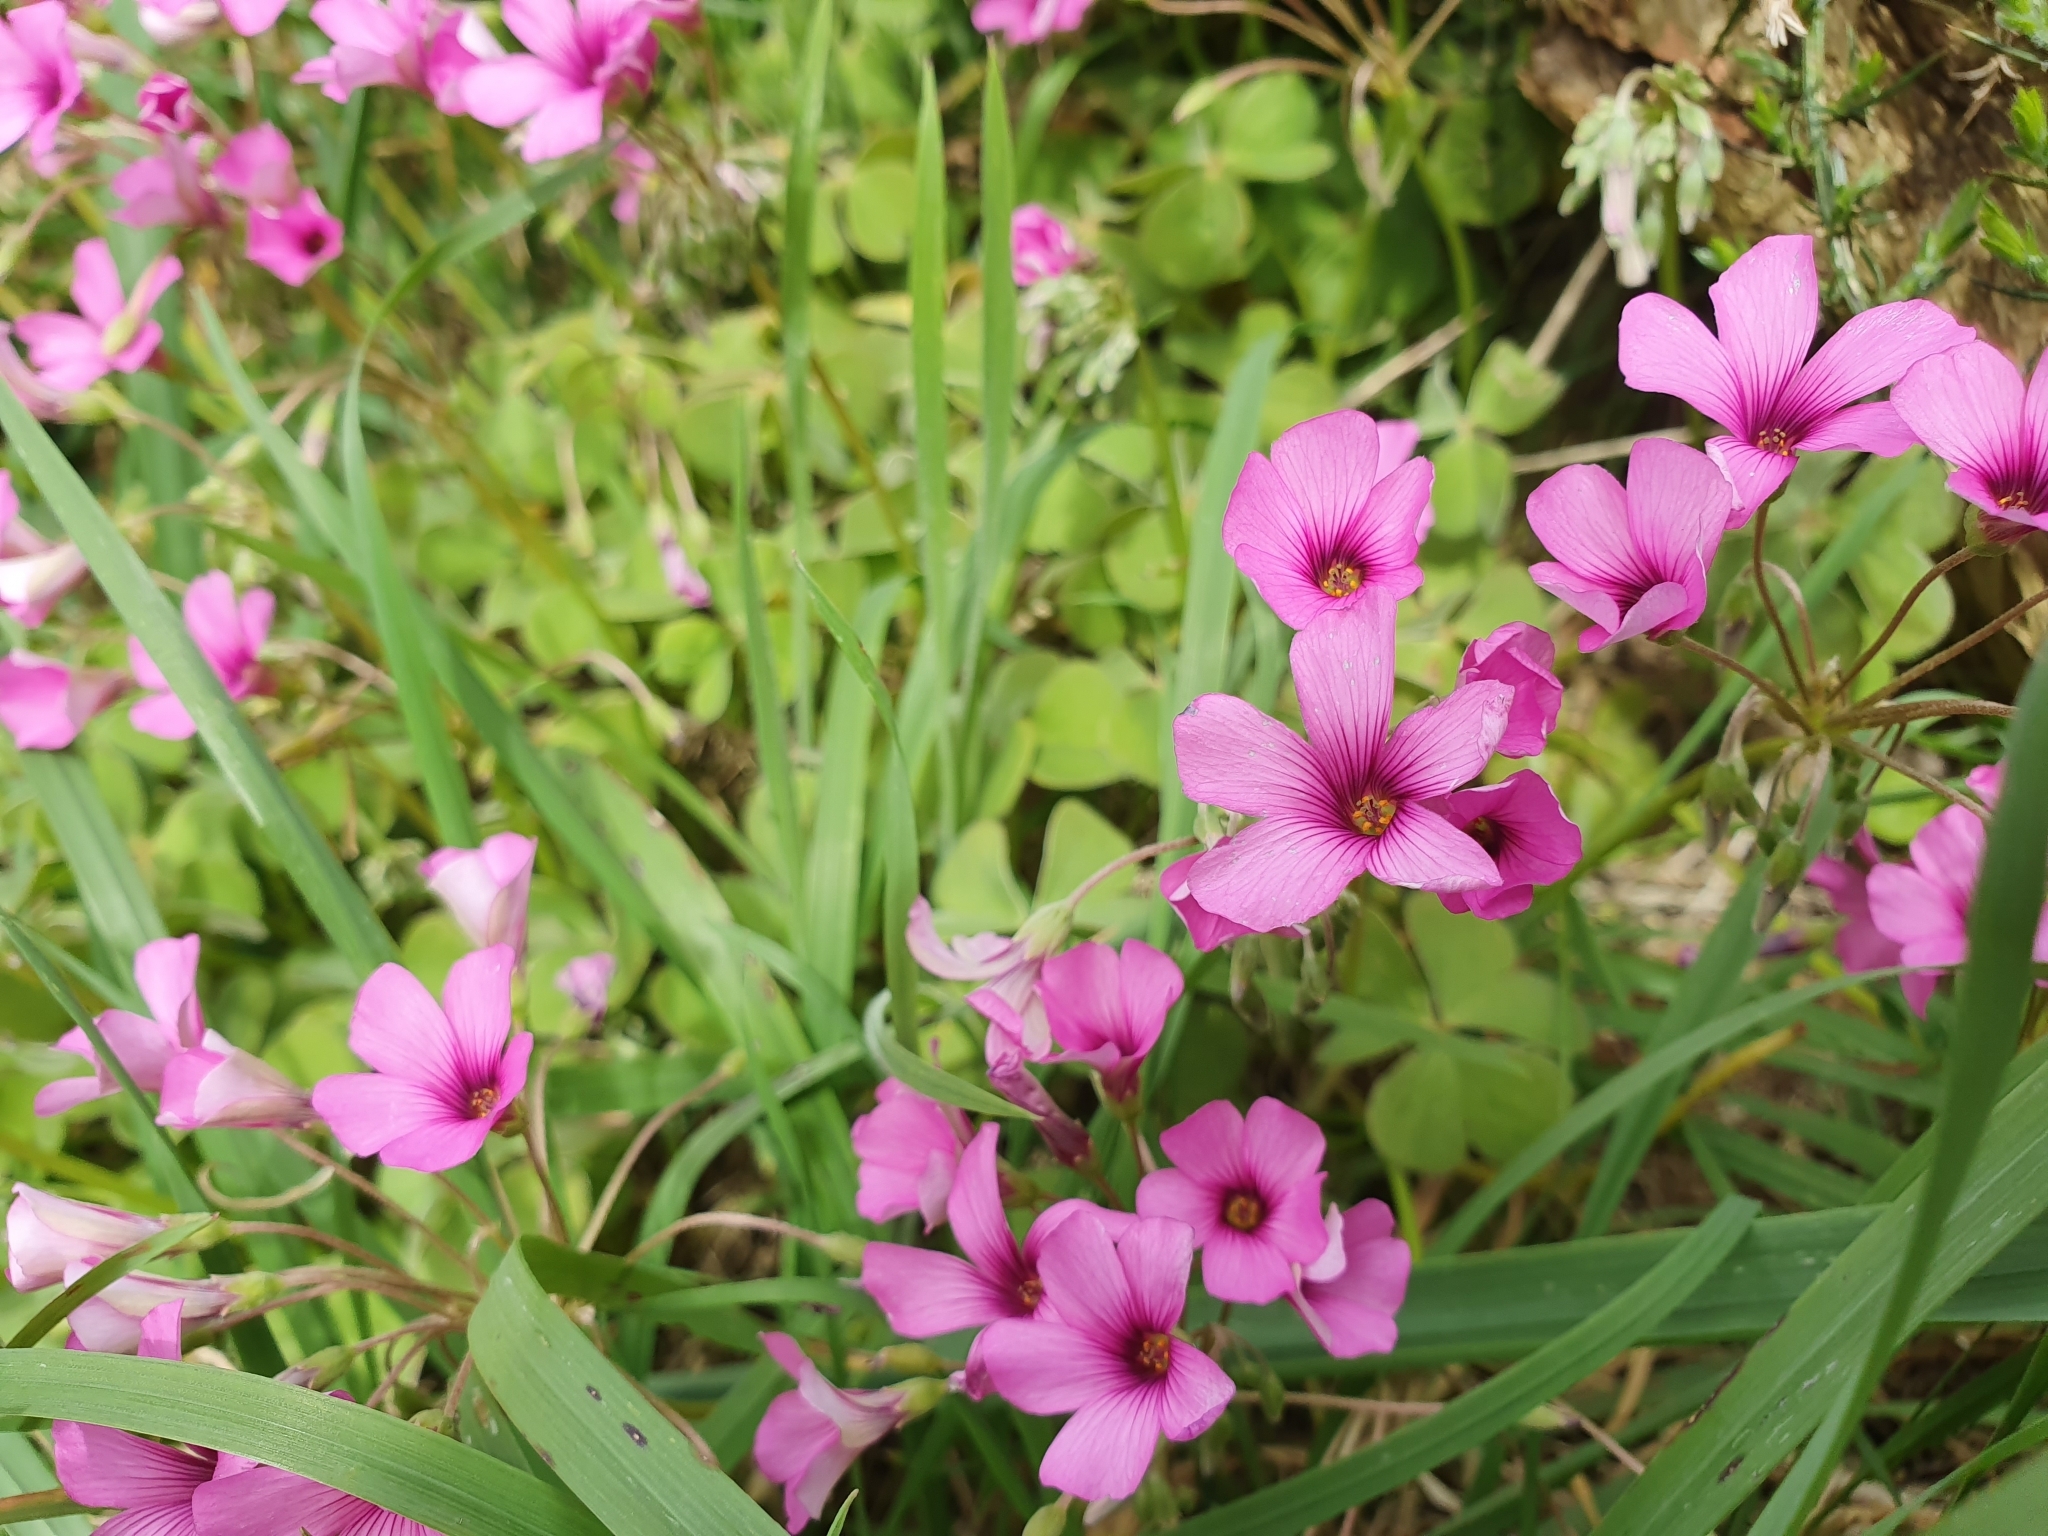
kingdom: Plantae
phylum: Tracheophyta
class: Magnoliopsida
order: Oxalidales
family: Oxalidaceae
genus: Oxalis
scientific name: Oxalis articulata
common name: Pink-sorrel
